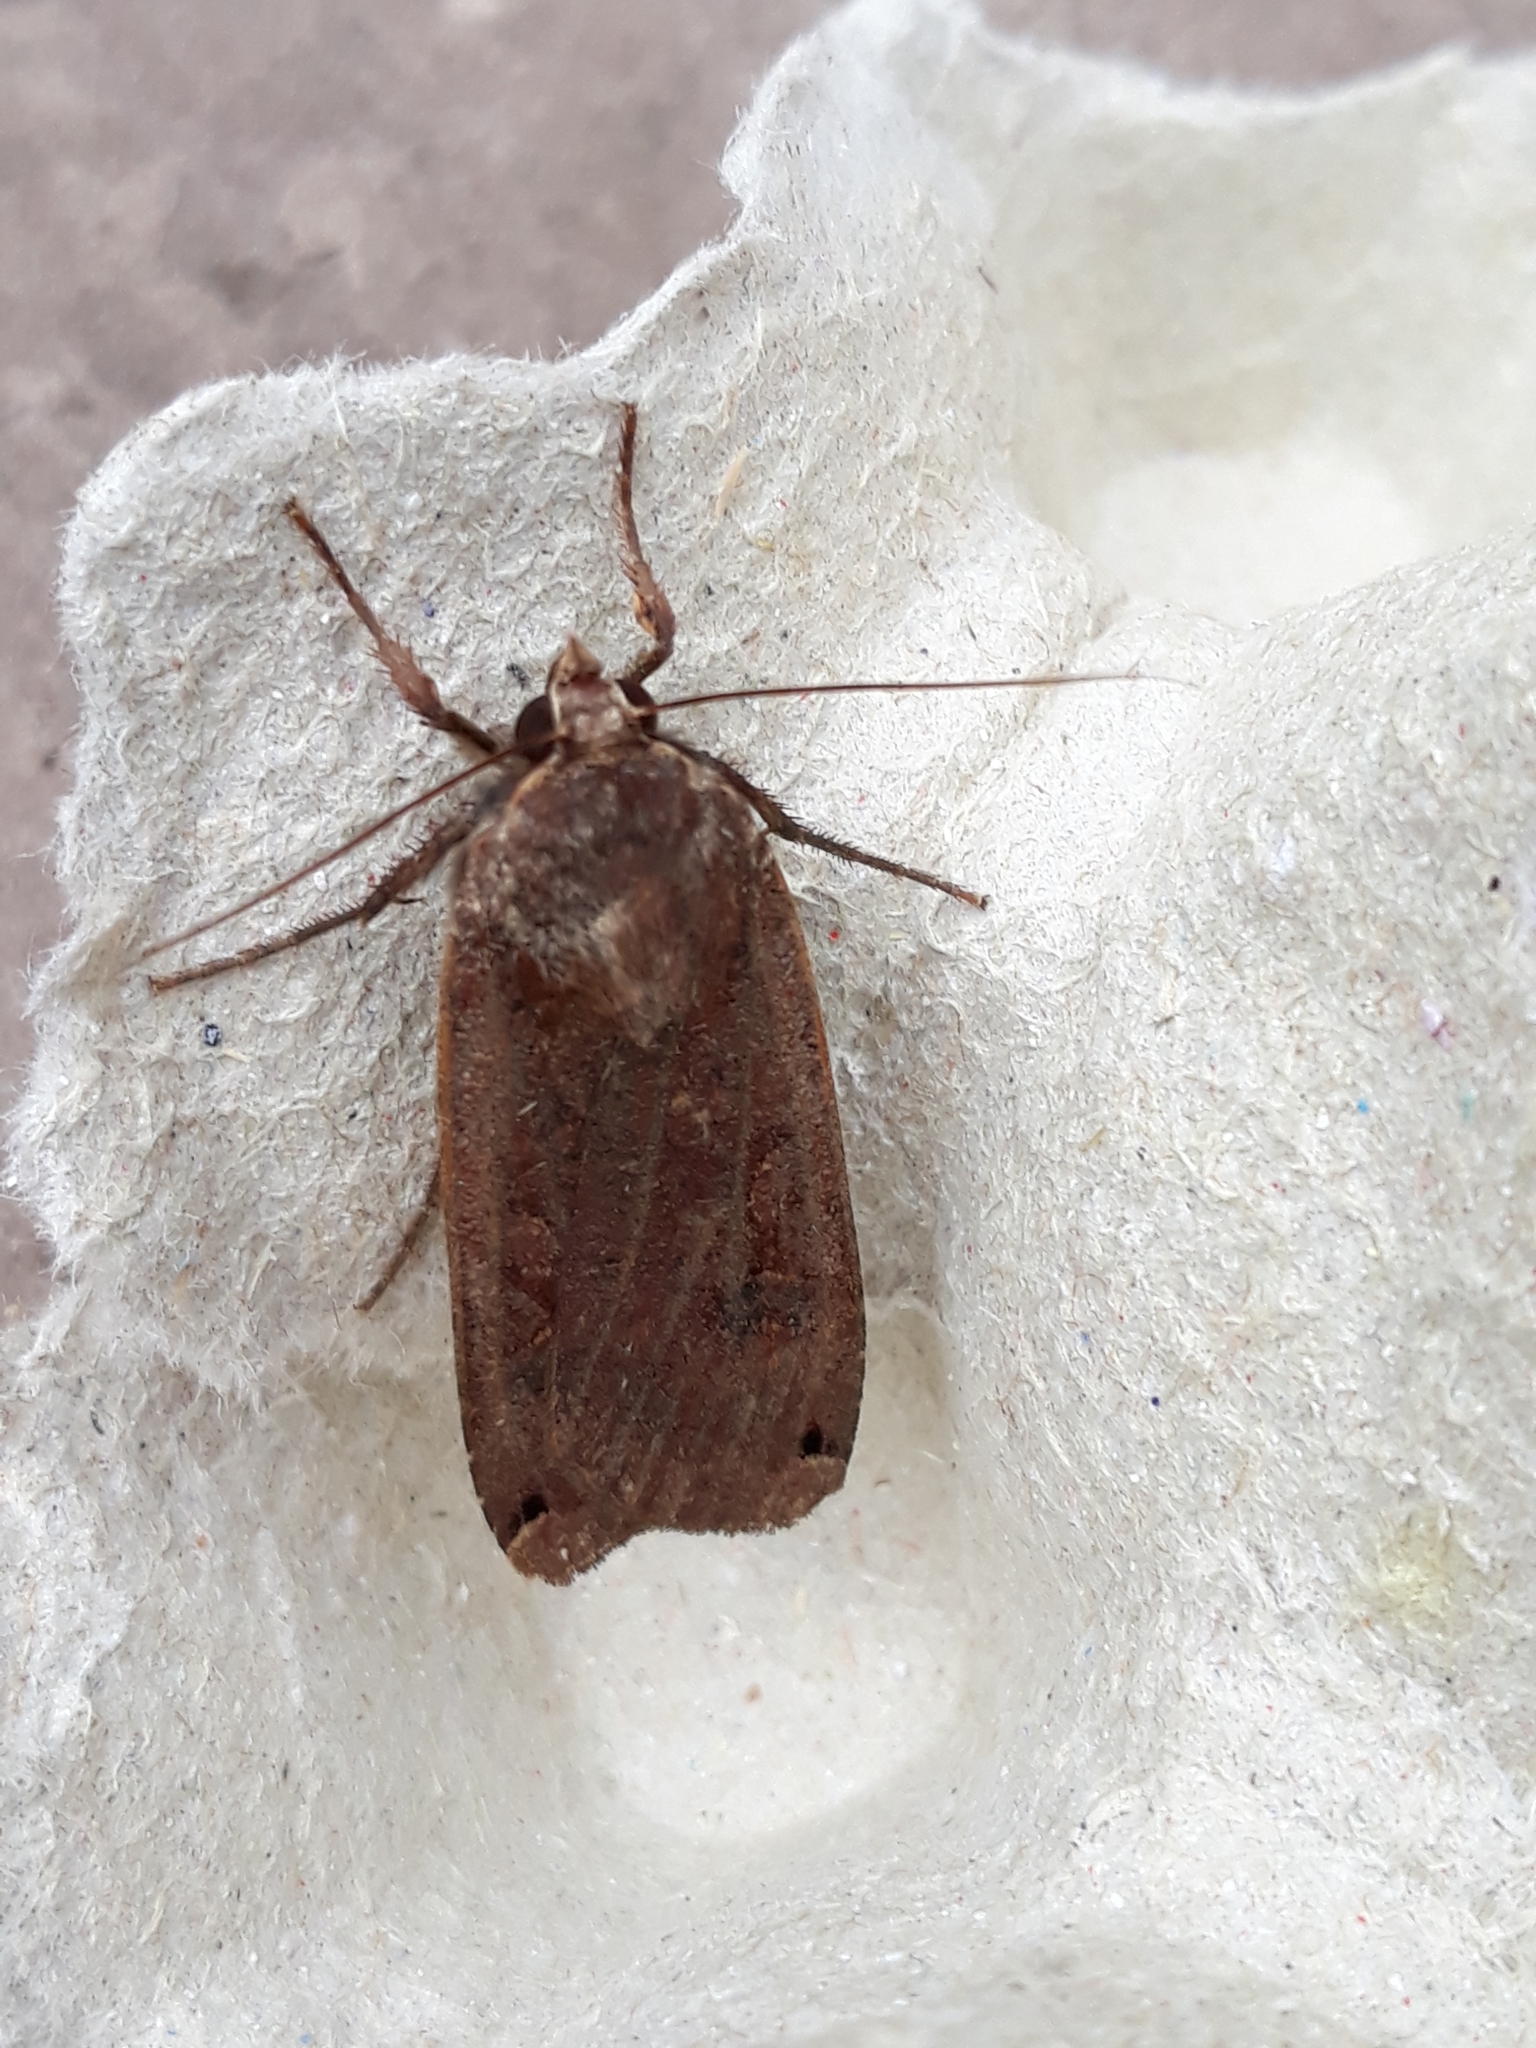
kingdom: Animalia
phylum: Arthropoda
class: Insecta
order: Lepidoptera
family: Noctuidae
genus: Noctua
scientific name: Noctua pronuba
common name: Large yellow underwing
